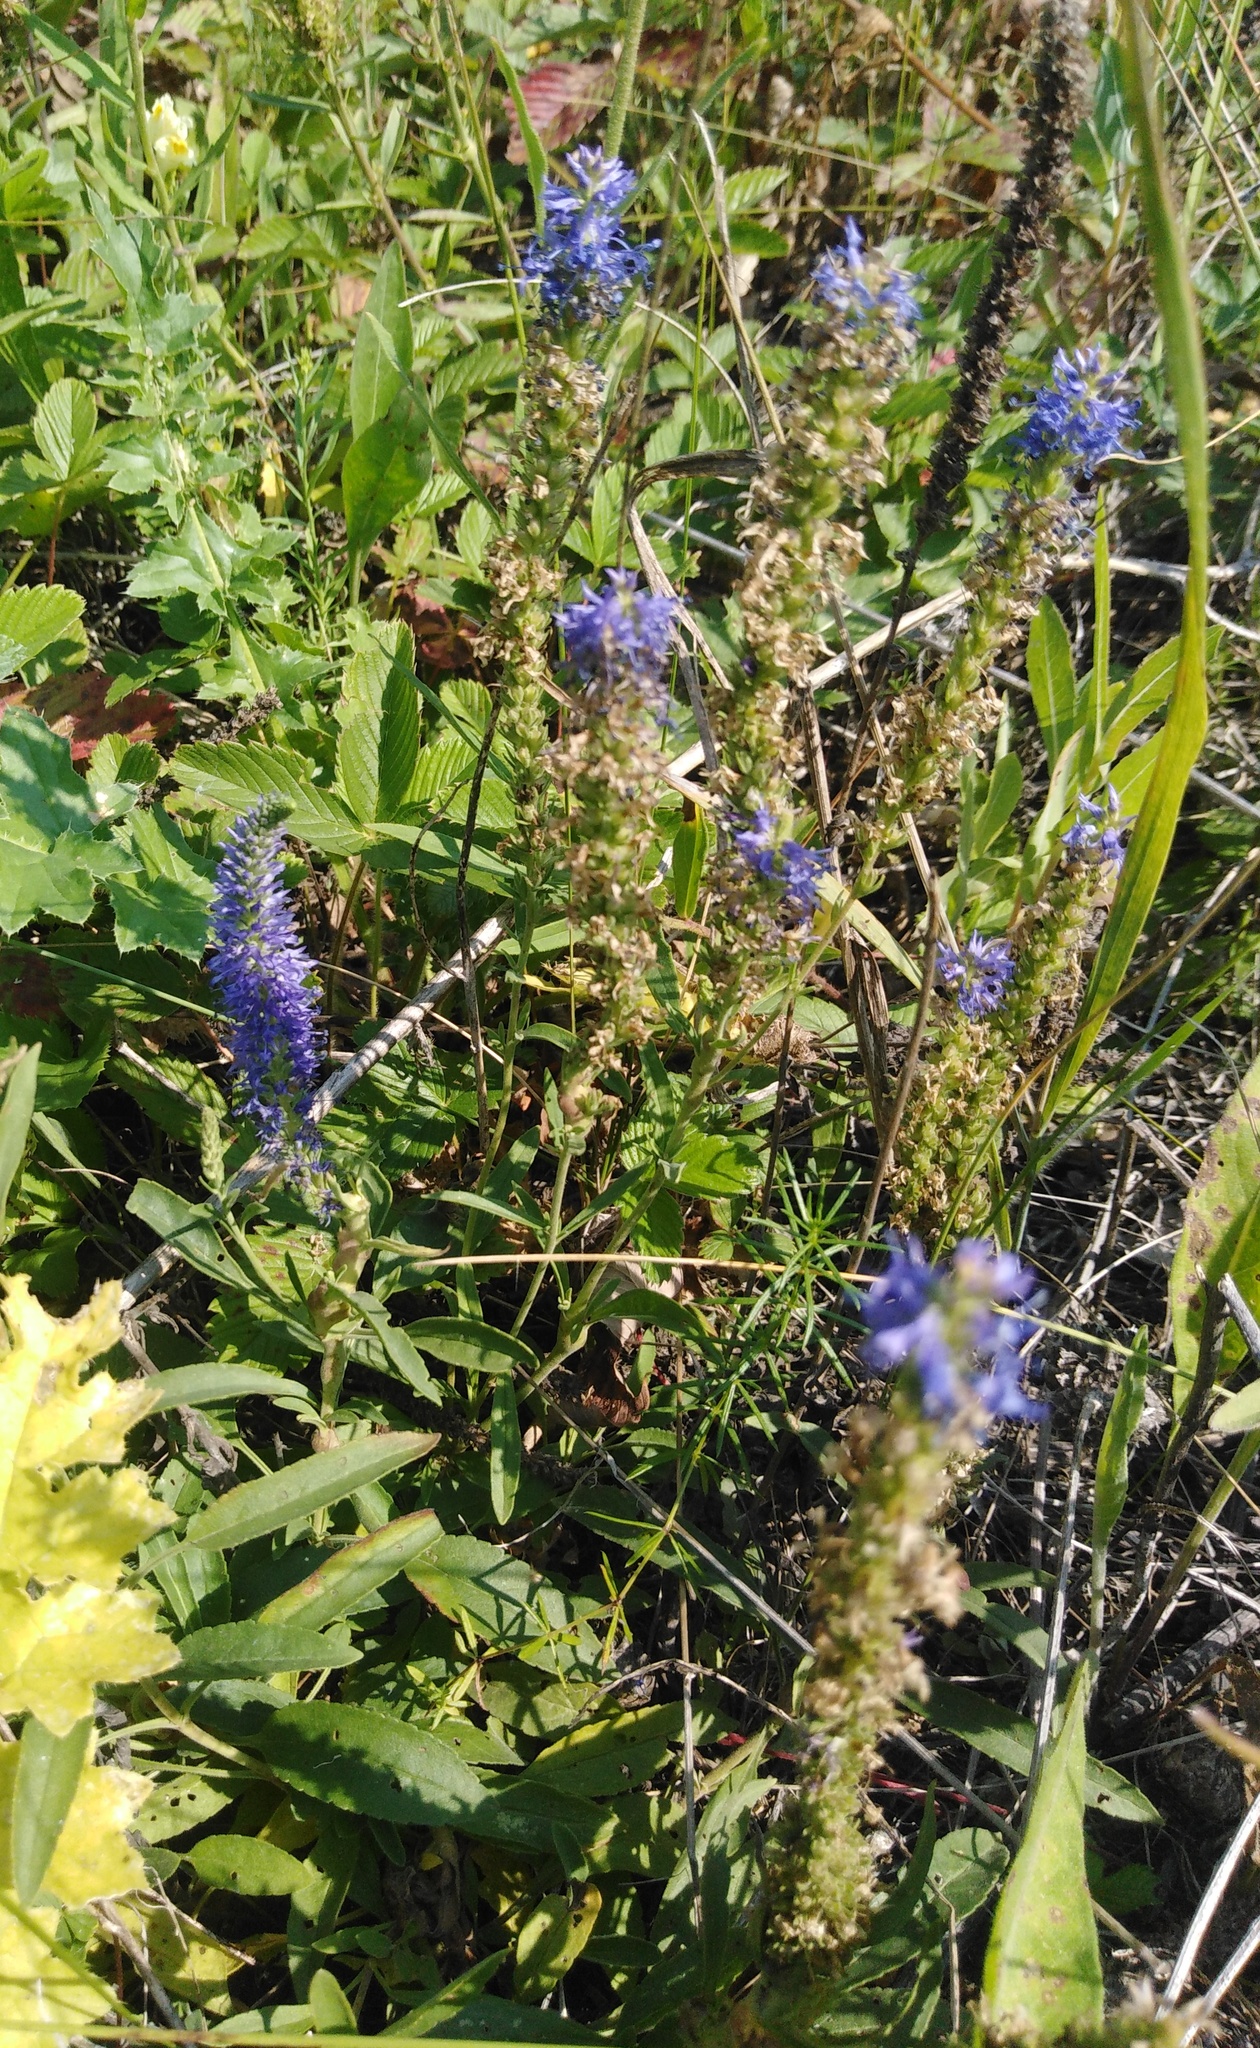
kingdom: Plantae
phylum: Tracheophyta
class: Magnoliopsida
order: Lamiales
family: Plantaginaceae
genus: Veronica
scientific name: Veronica spicata
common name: Spiked speedwell
